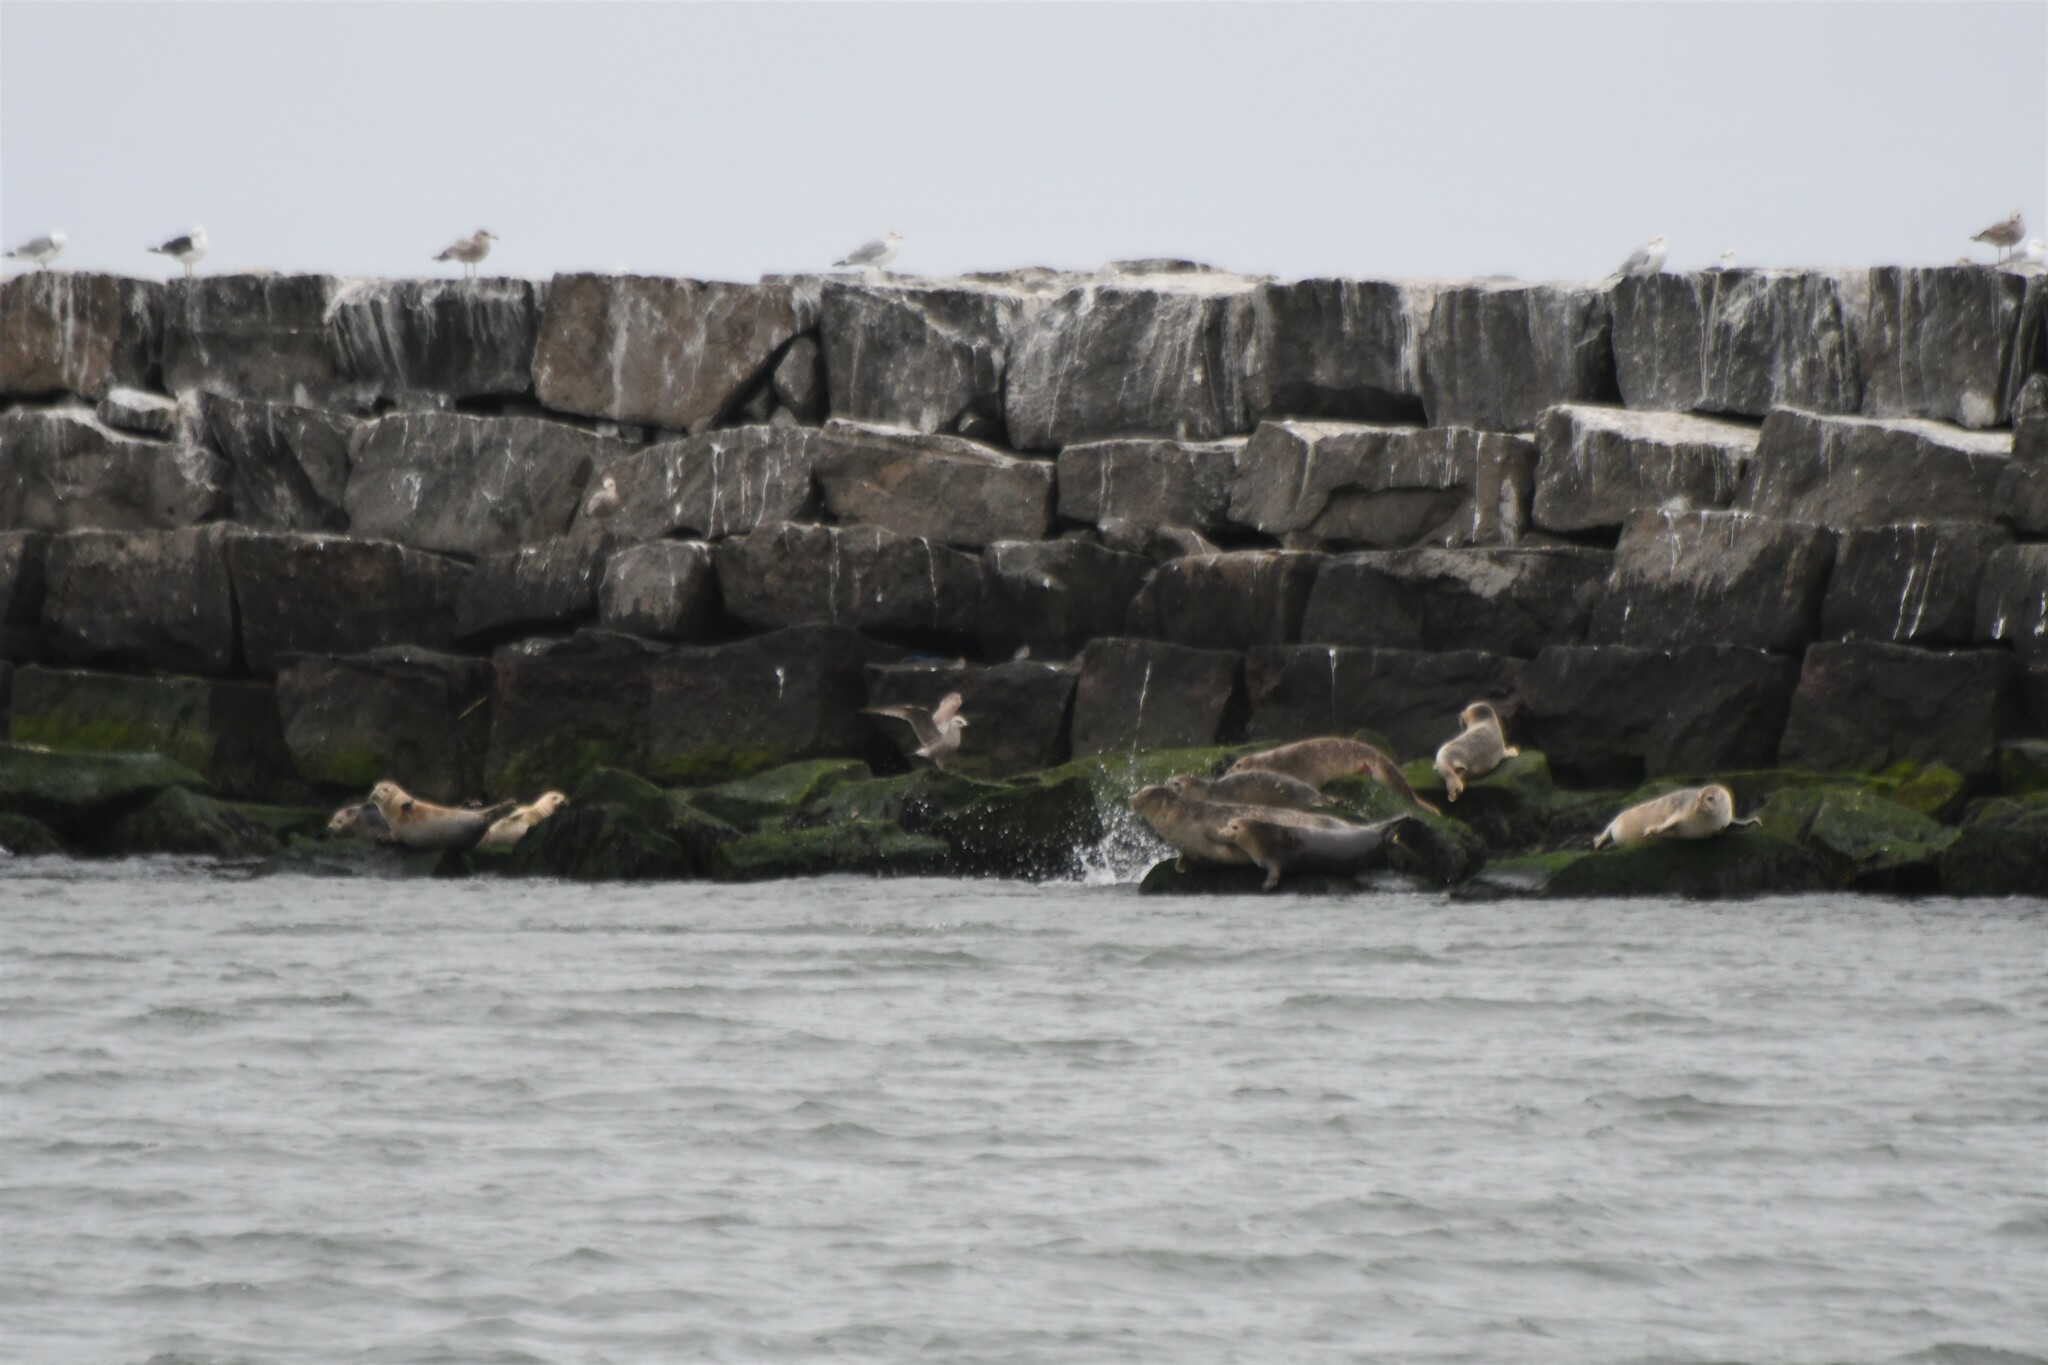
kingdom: Animalia
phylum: Chordata
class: Mammalia
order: Carnivora
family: Phocidae
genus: Phoca
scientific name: Phoca vitulina
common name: Harbor seal
